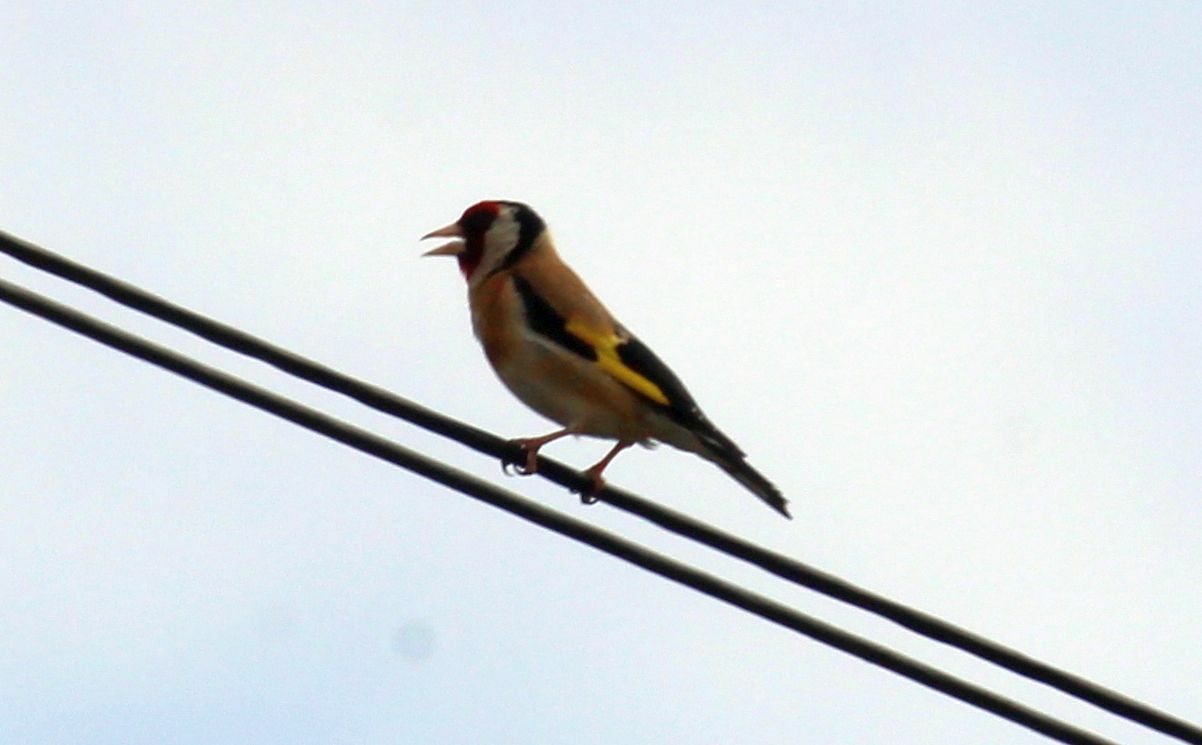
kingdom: Animalia
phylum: Chordata
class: Aves
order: Passeriformes
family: Fringillidae
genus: Carduelis
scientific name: Carduelis carduelis
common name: European goldfinch
